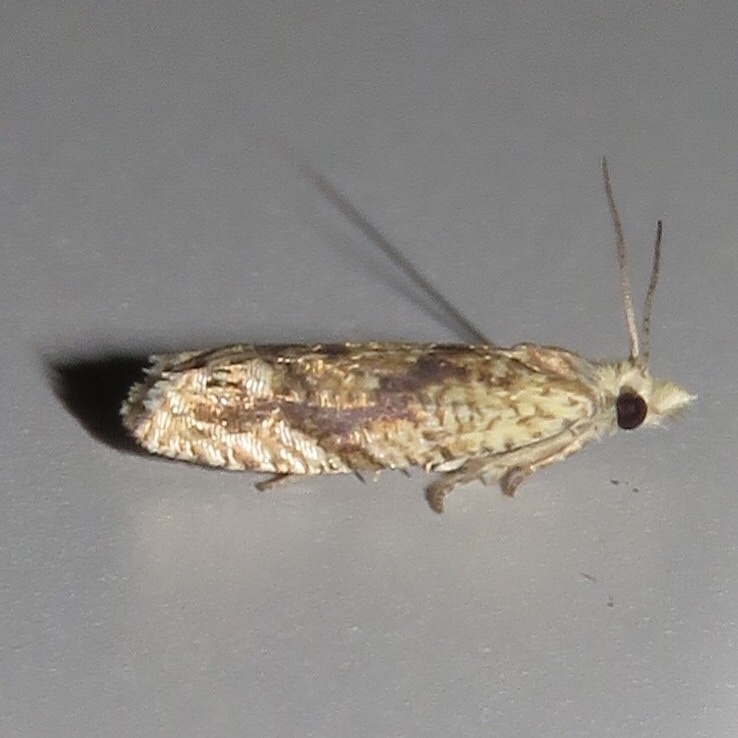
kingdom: Animalia
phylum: Arthropoda
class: Insecta
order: Lepidoptera
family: Tortricidae
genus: Eucosma
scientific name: Eucosma ochrocephala
